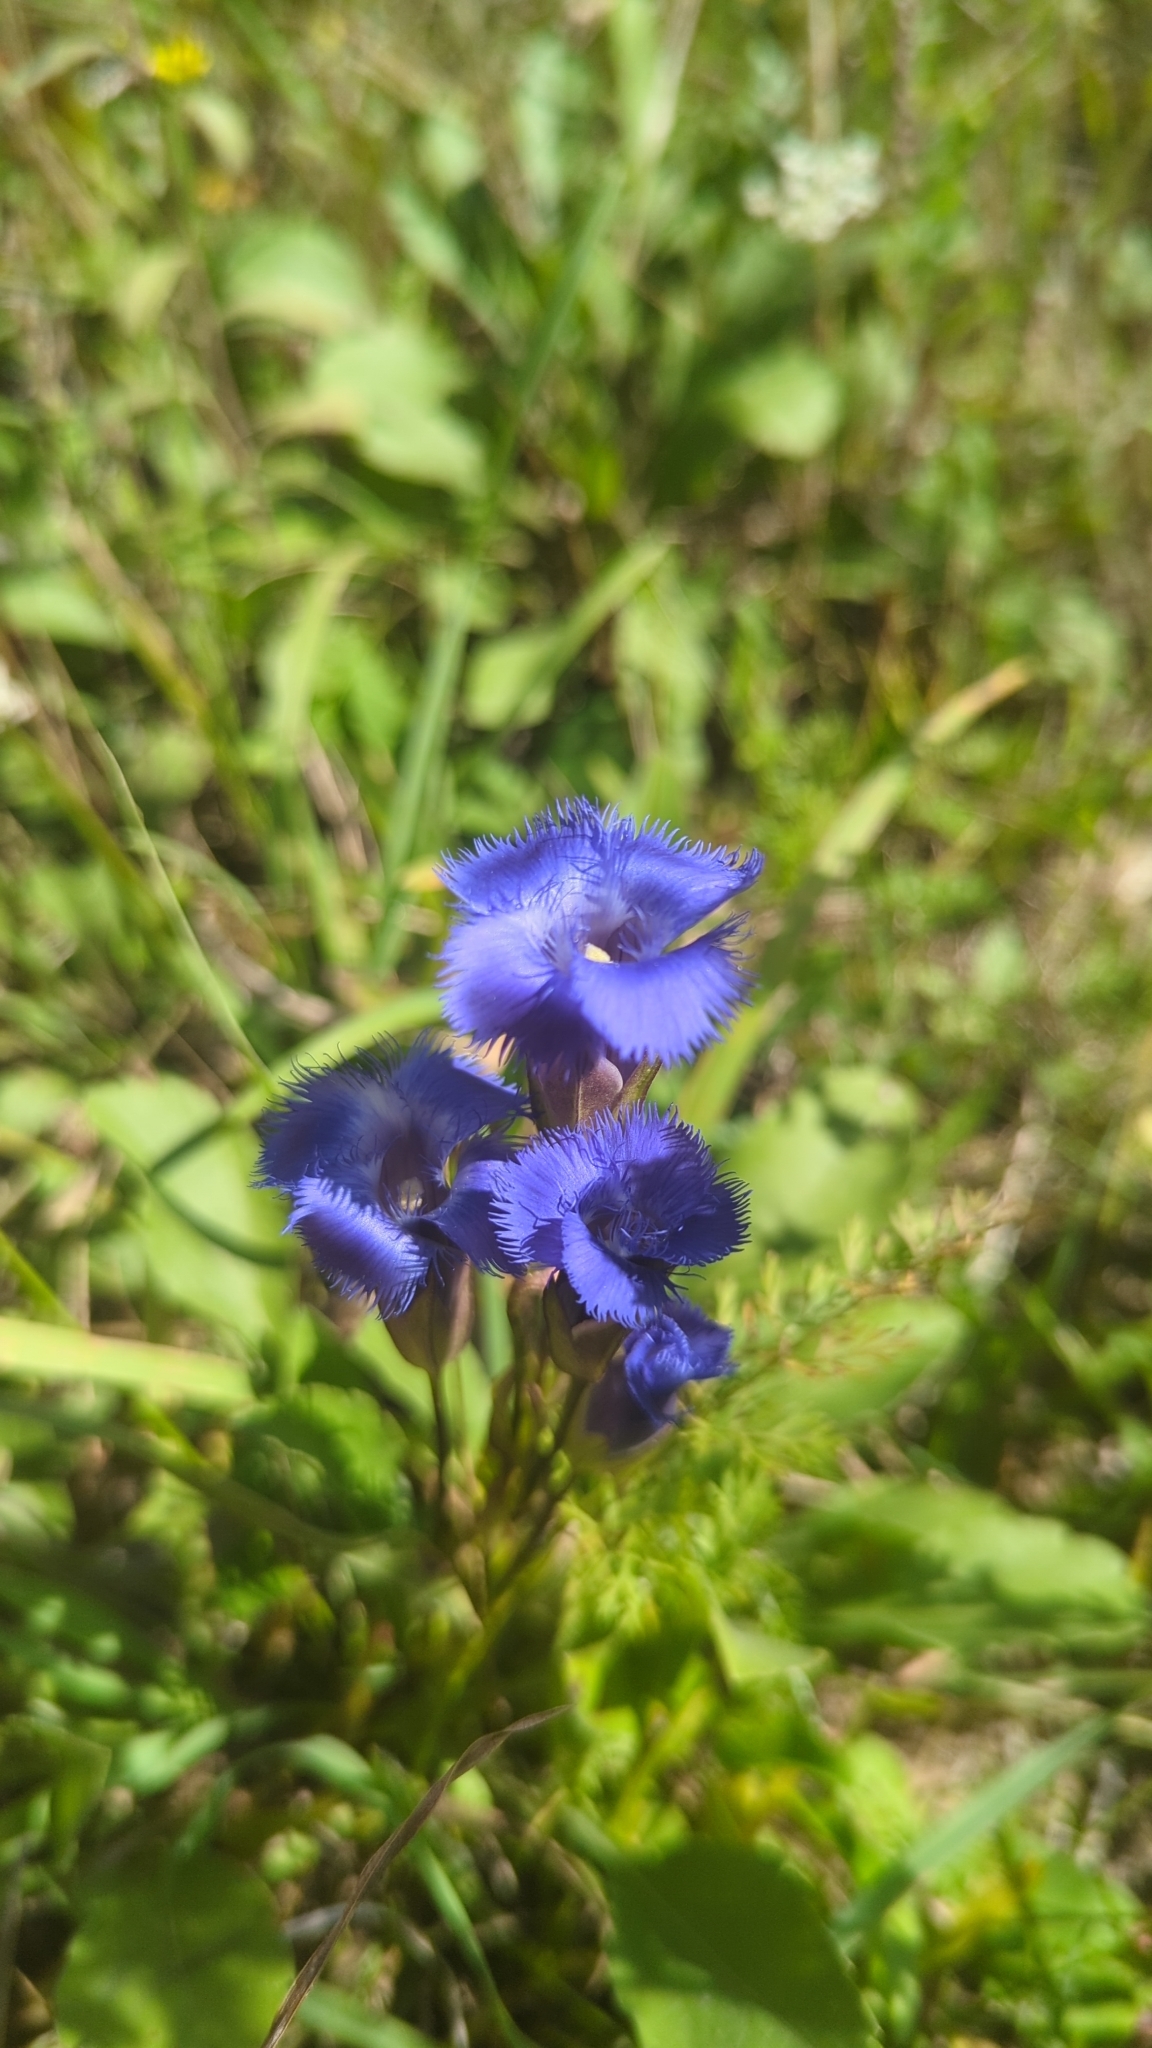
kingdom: Plantae
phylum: Tracheophyta
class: Magnoliopsida
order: Gentianales
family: Gentianaceae
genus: Gentianopsis
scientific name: Gentianopsis crinita
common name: Fringed-gentian
